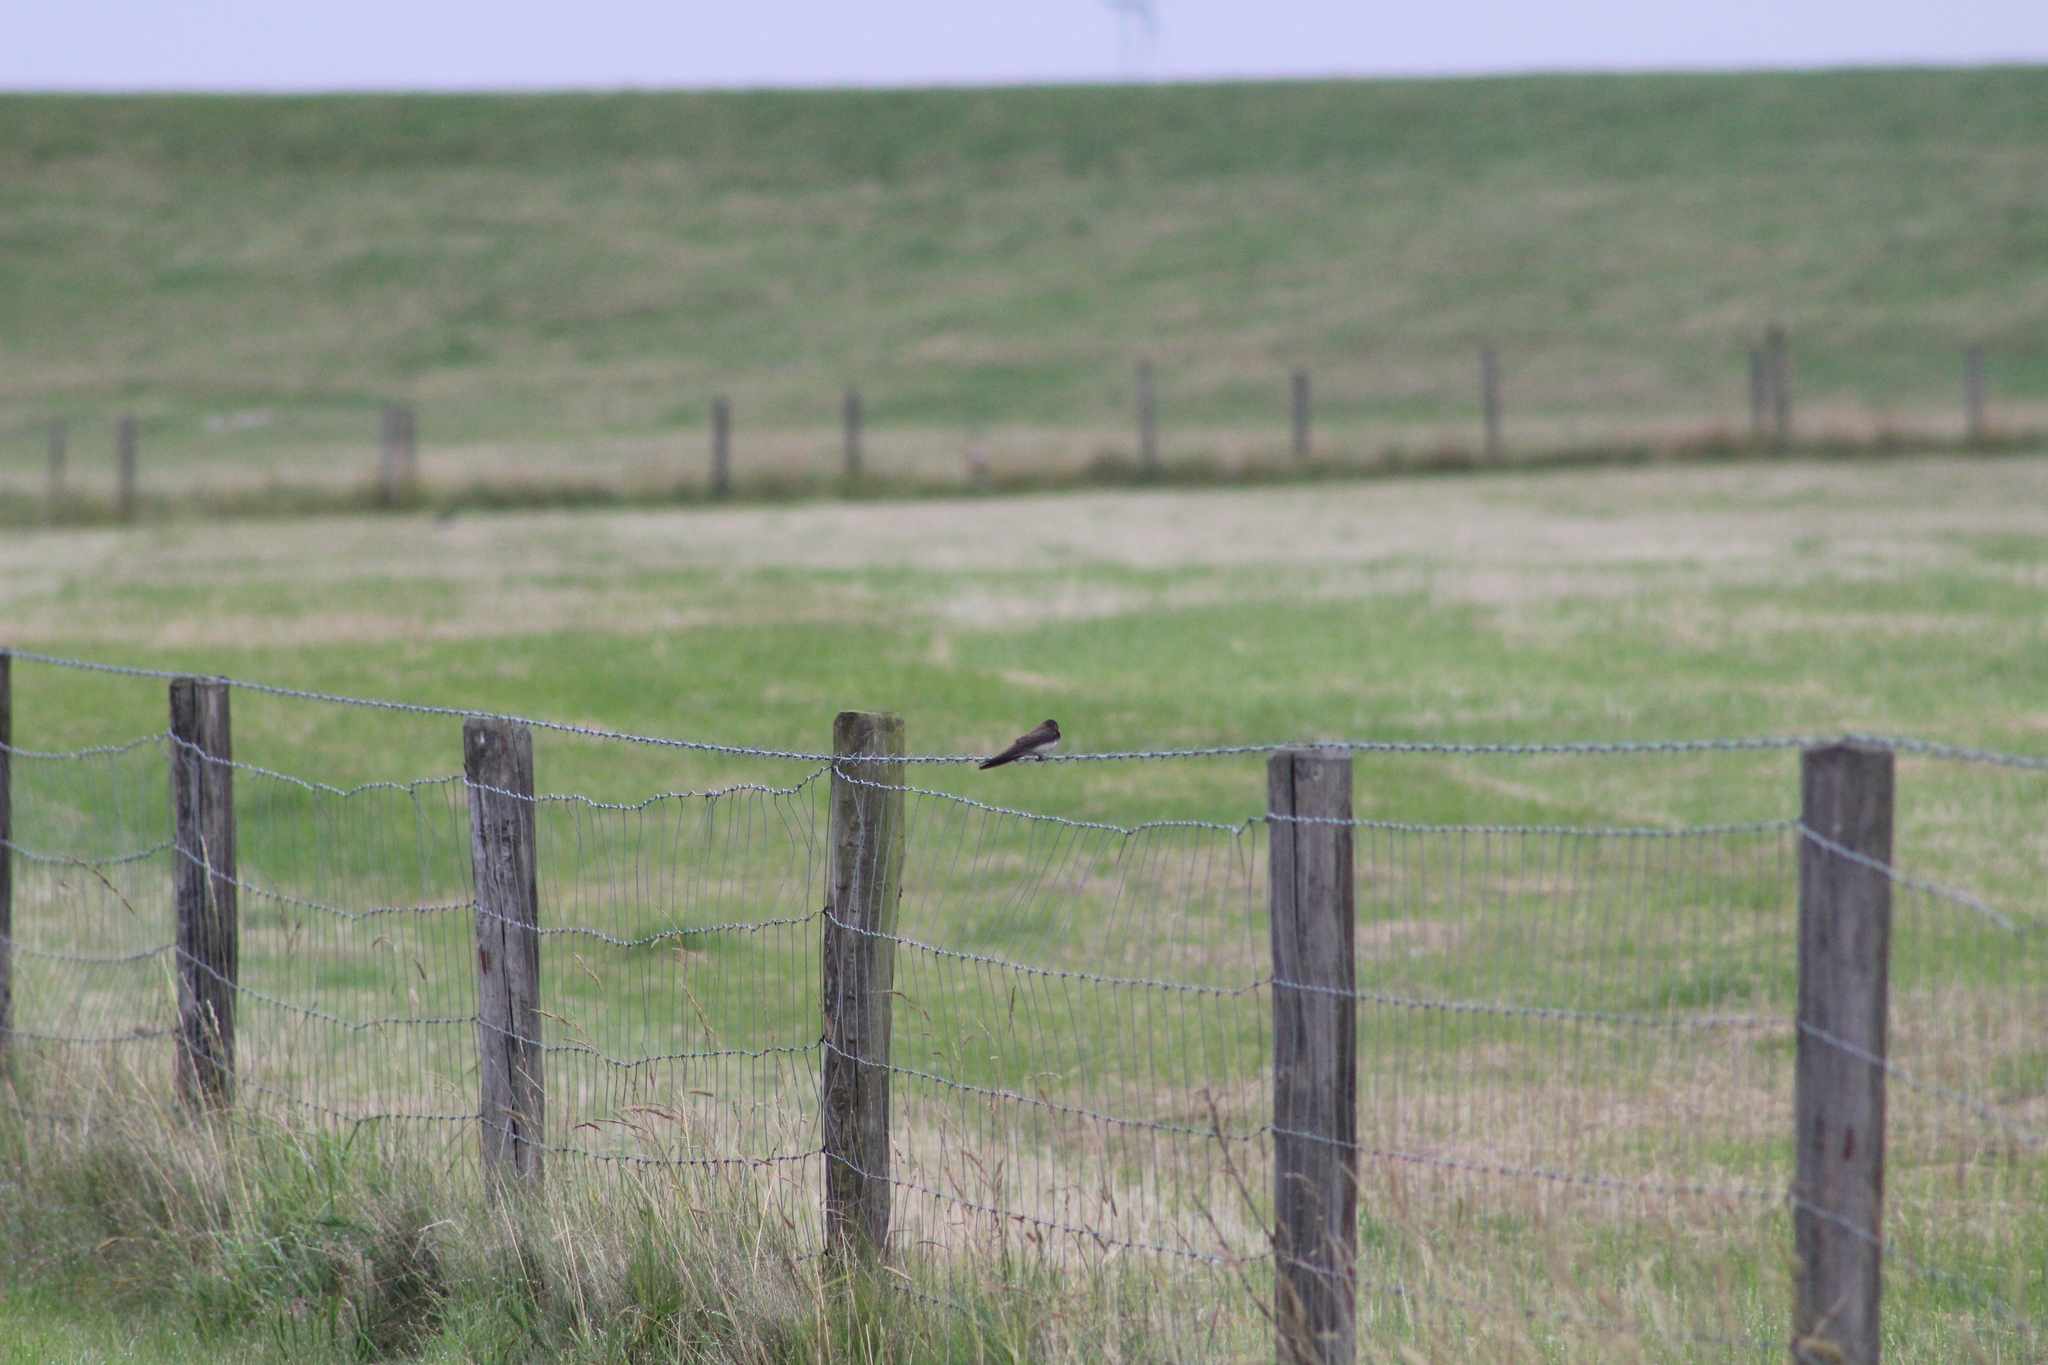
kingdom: Animalia
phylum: Chordata
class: Aves
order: Passeriformes
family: Hirundinidae
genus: Riparia
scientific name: Riparia riparia
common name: Sand martin
